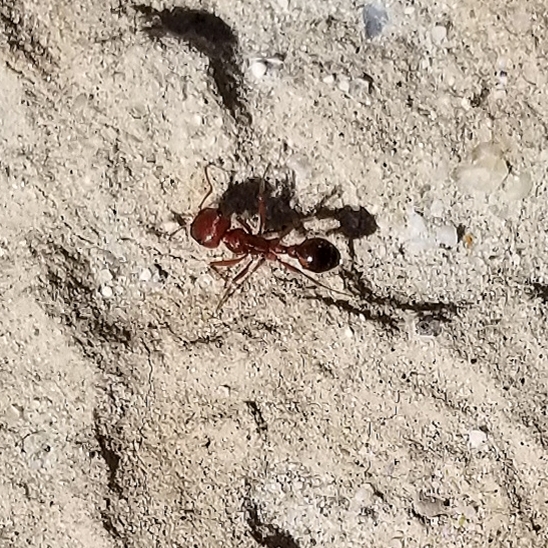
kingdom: Animalia
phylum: Arthropoda
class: Insecta
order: Hymenoptera
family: Formicidae
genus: Pogonomyrmex
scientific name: Pogonomyrmex californicus
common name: California harvester ant
